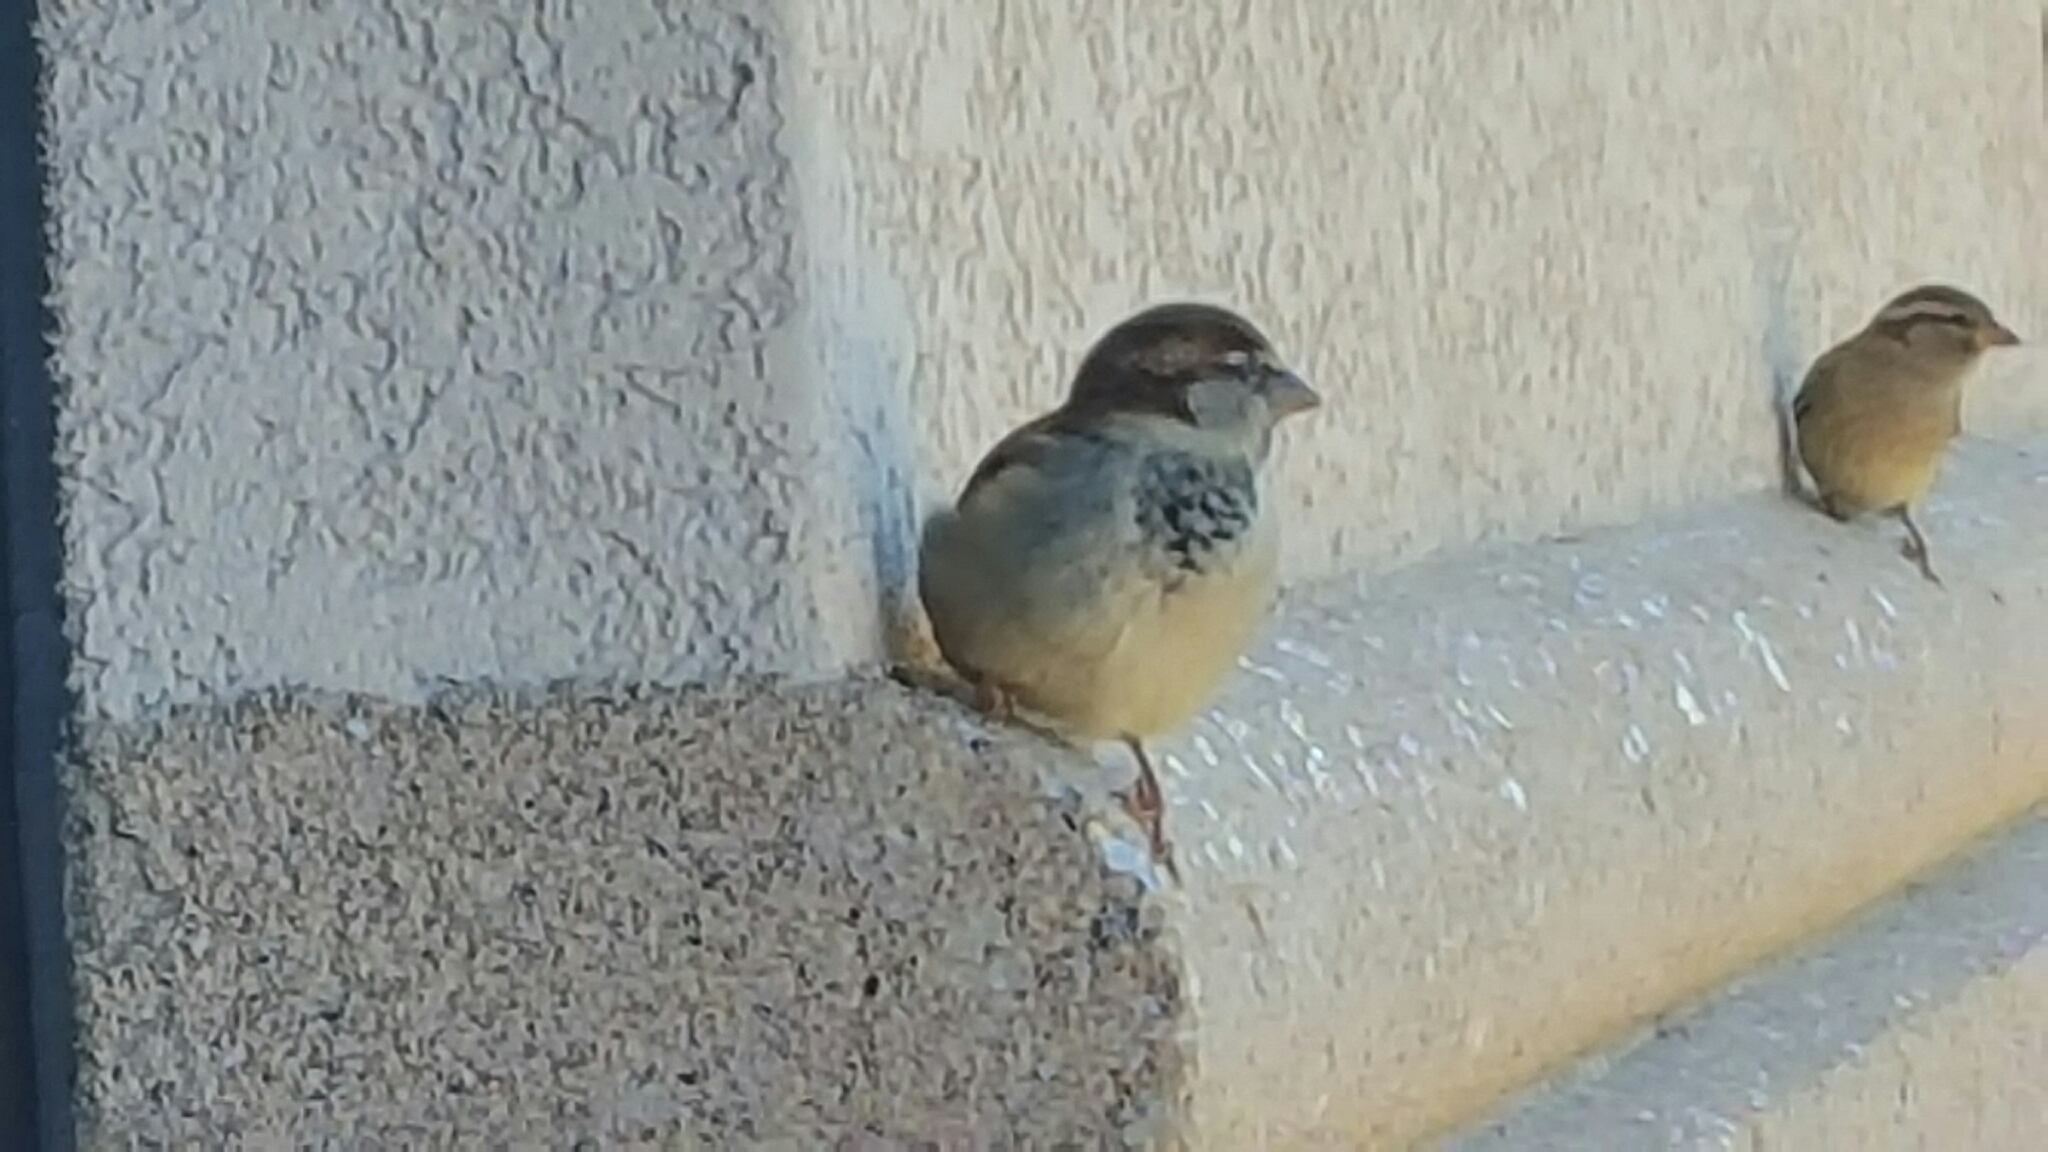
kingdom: Animalia
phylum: Chordata
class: Aves
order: Passeriformes
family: Passeridae
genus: Passer
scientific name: Passer domesticus
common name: House sparrow
